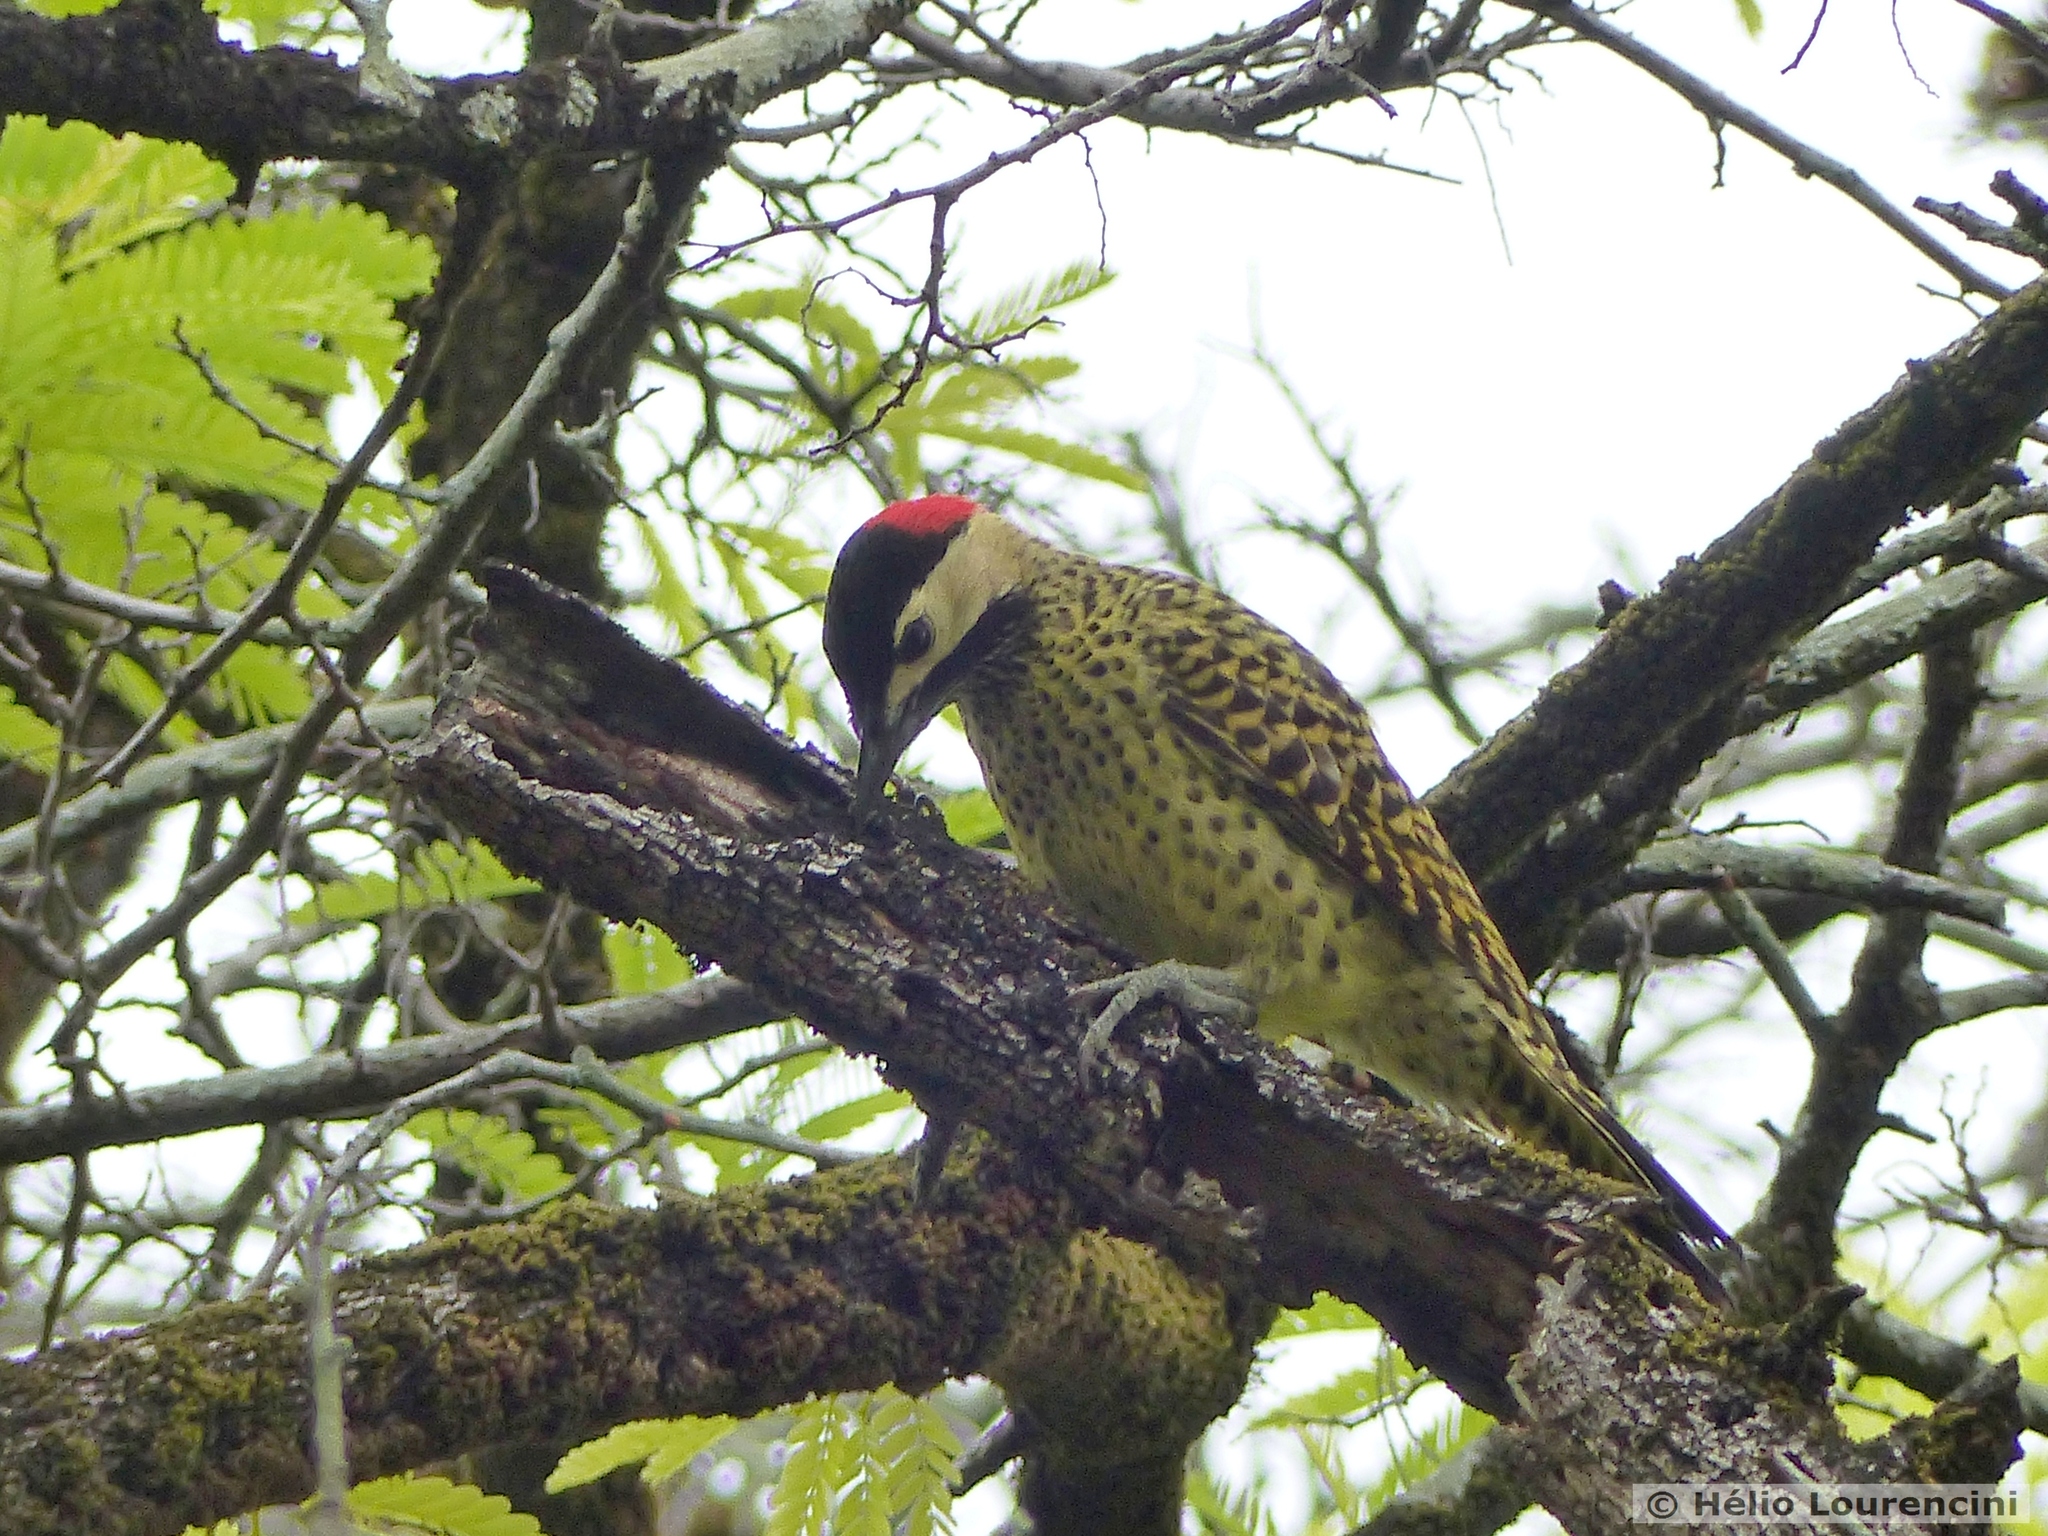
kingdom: Animalia
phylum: Chordata
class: Aves
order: Piciformes
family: Picidae
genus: Colaptes
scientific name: Colaptes melanochloros
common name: Green-barred woodpecker
